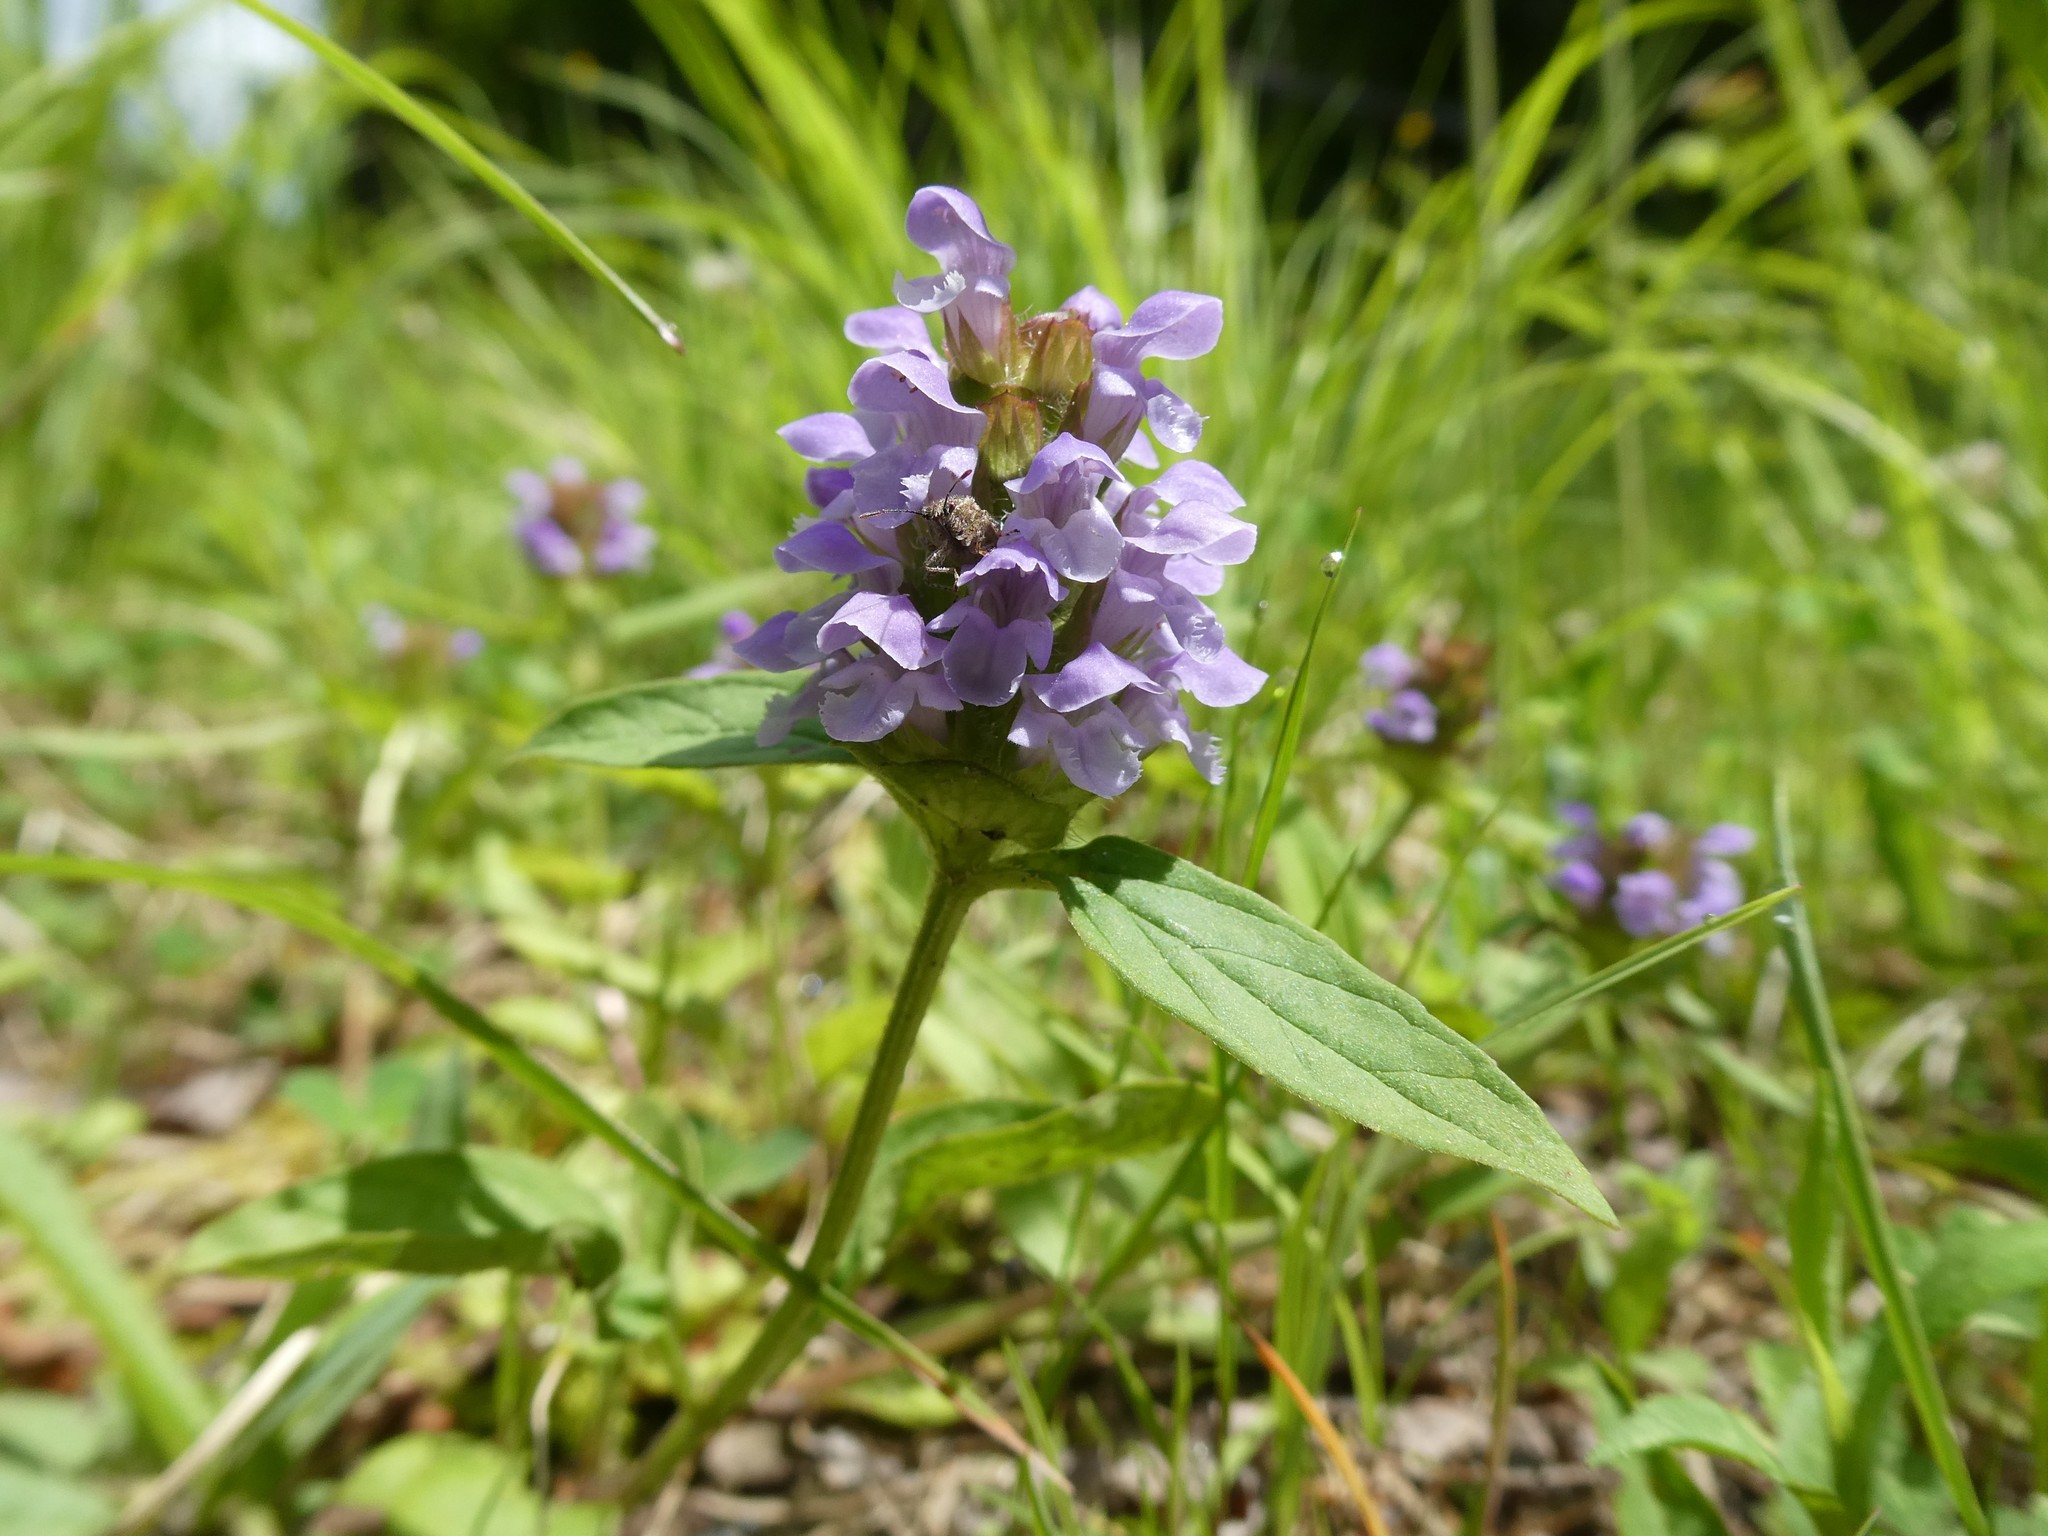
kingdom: Plantae
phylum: Tracheophyta
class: Magnoliopsida
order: Lamiales
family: Lamiaceae
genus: Prunella
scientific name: Prunella vulgaris
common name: Heal-all
